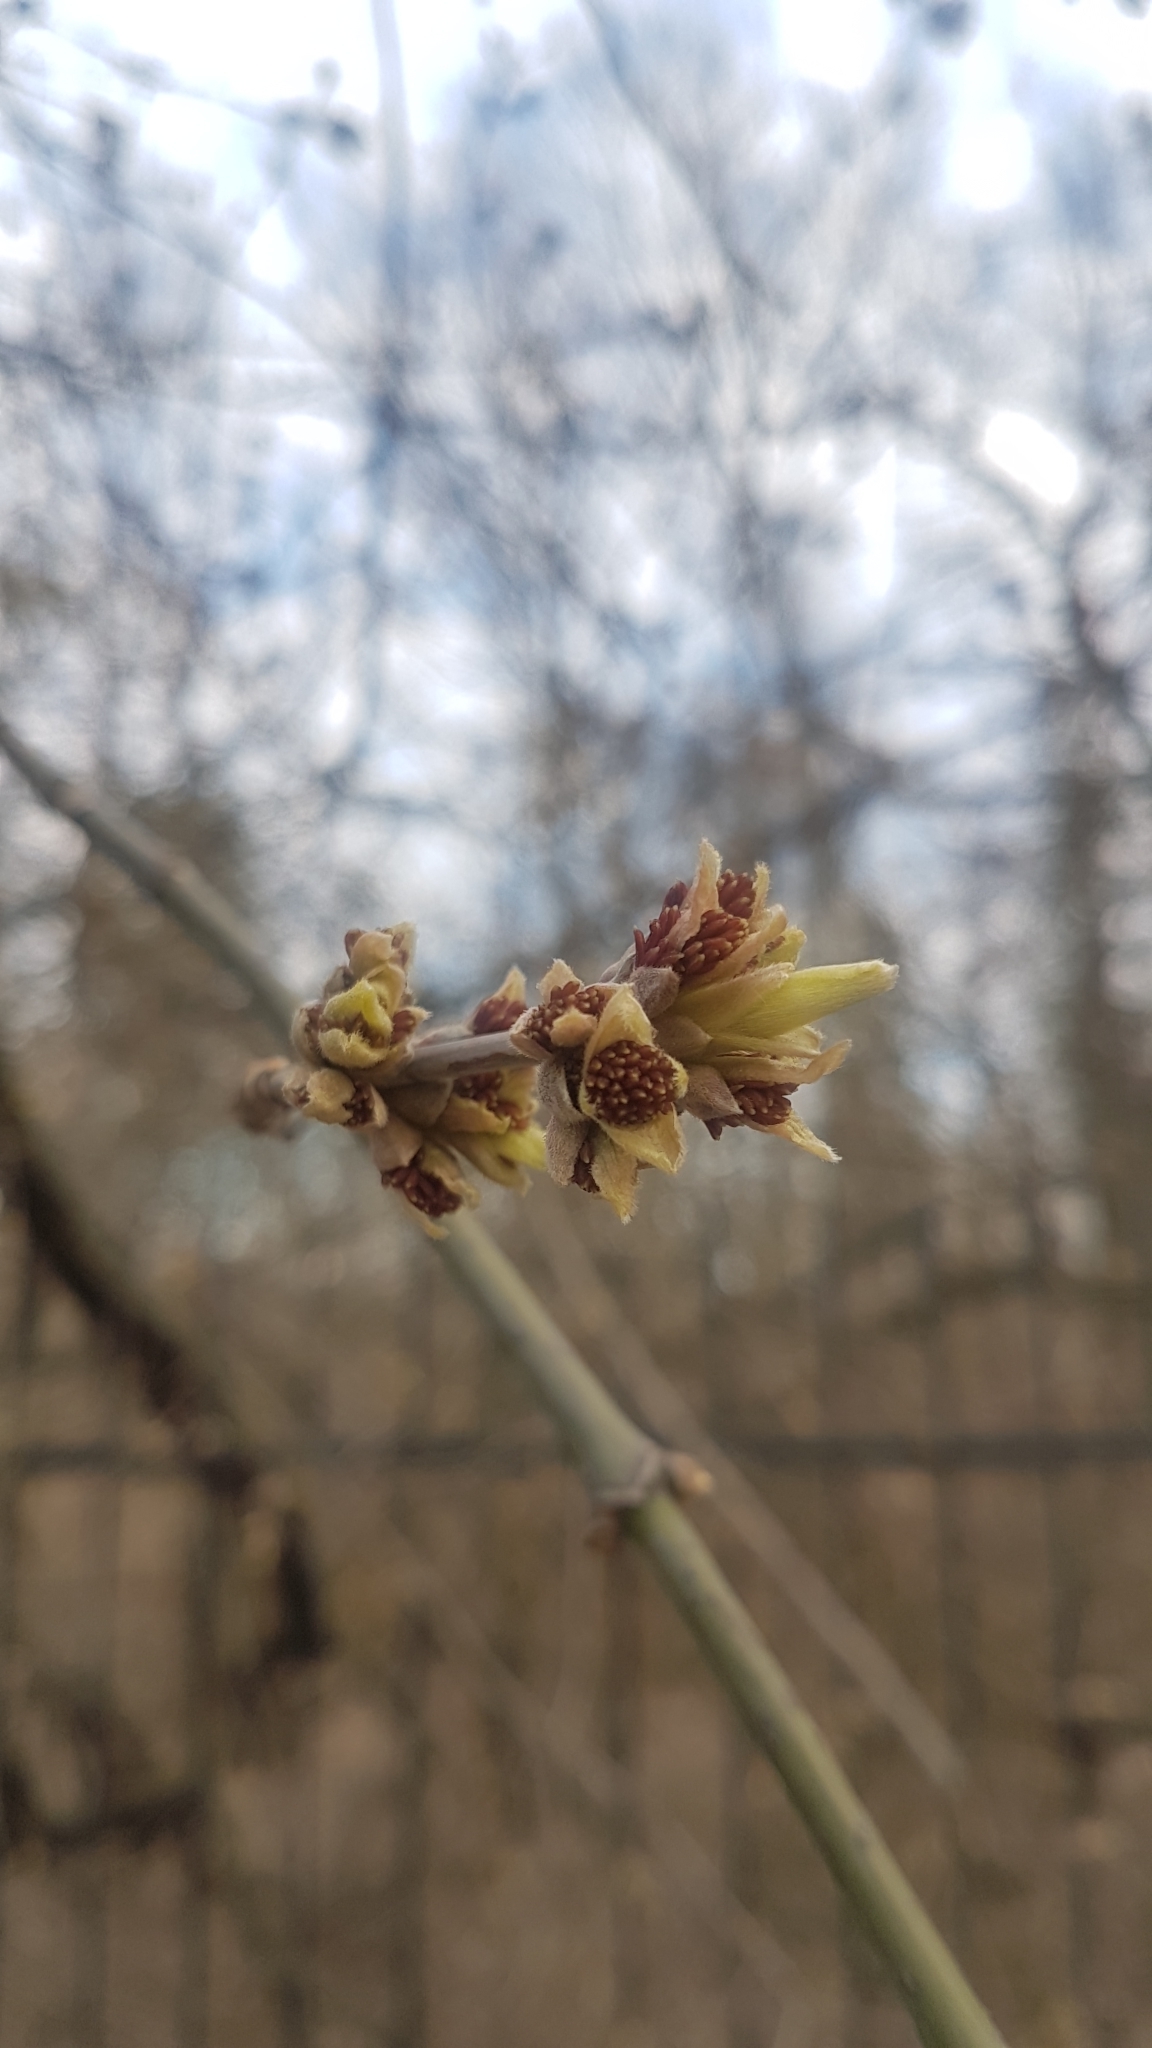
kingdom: Plantae
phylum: Tracheophyta
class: Magnoliopsida
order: Sapindales
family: Sapindaceae
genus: Acer
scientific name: Acer negundo
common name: Ashleaf maple
